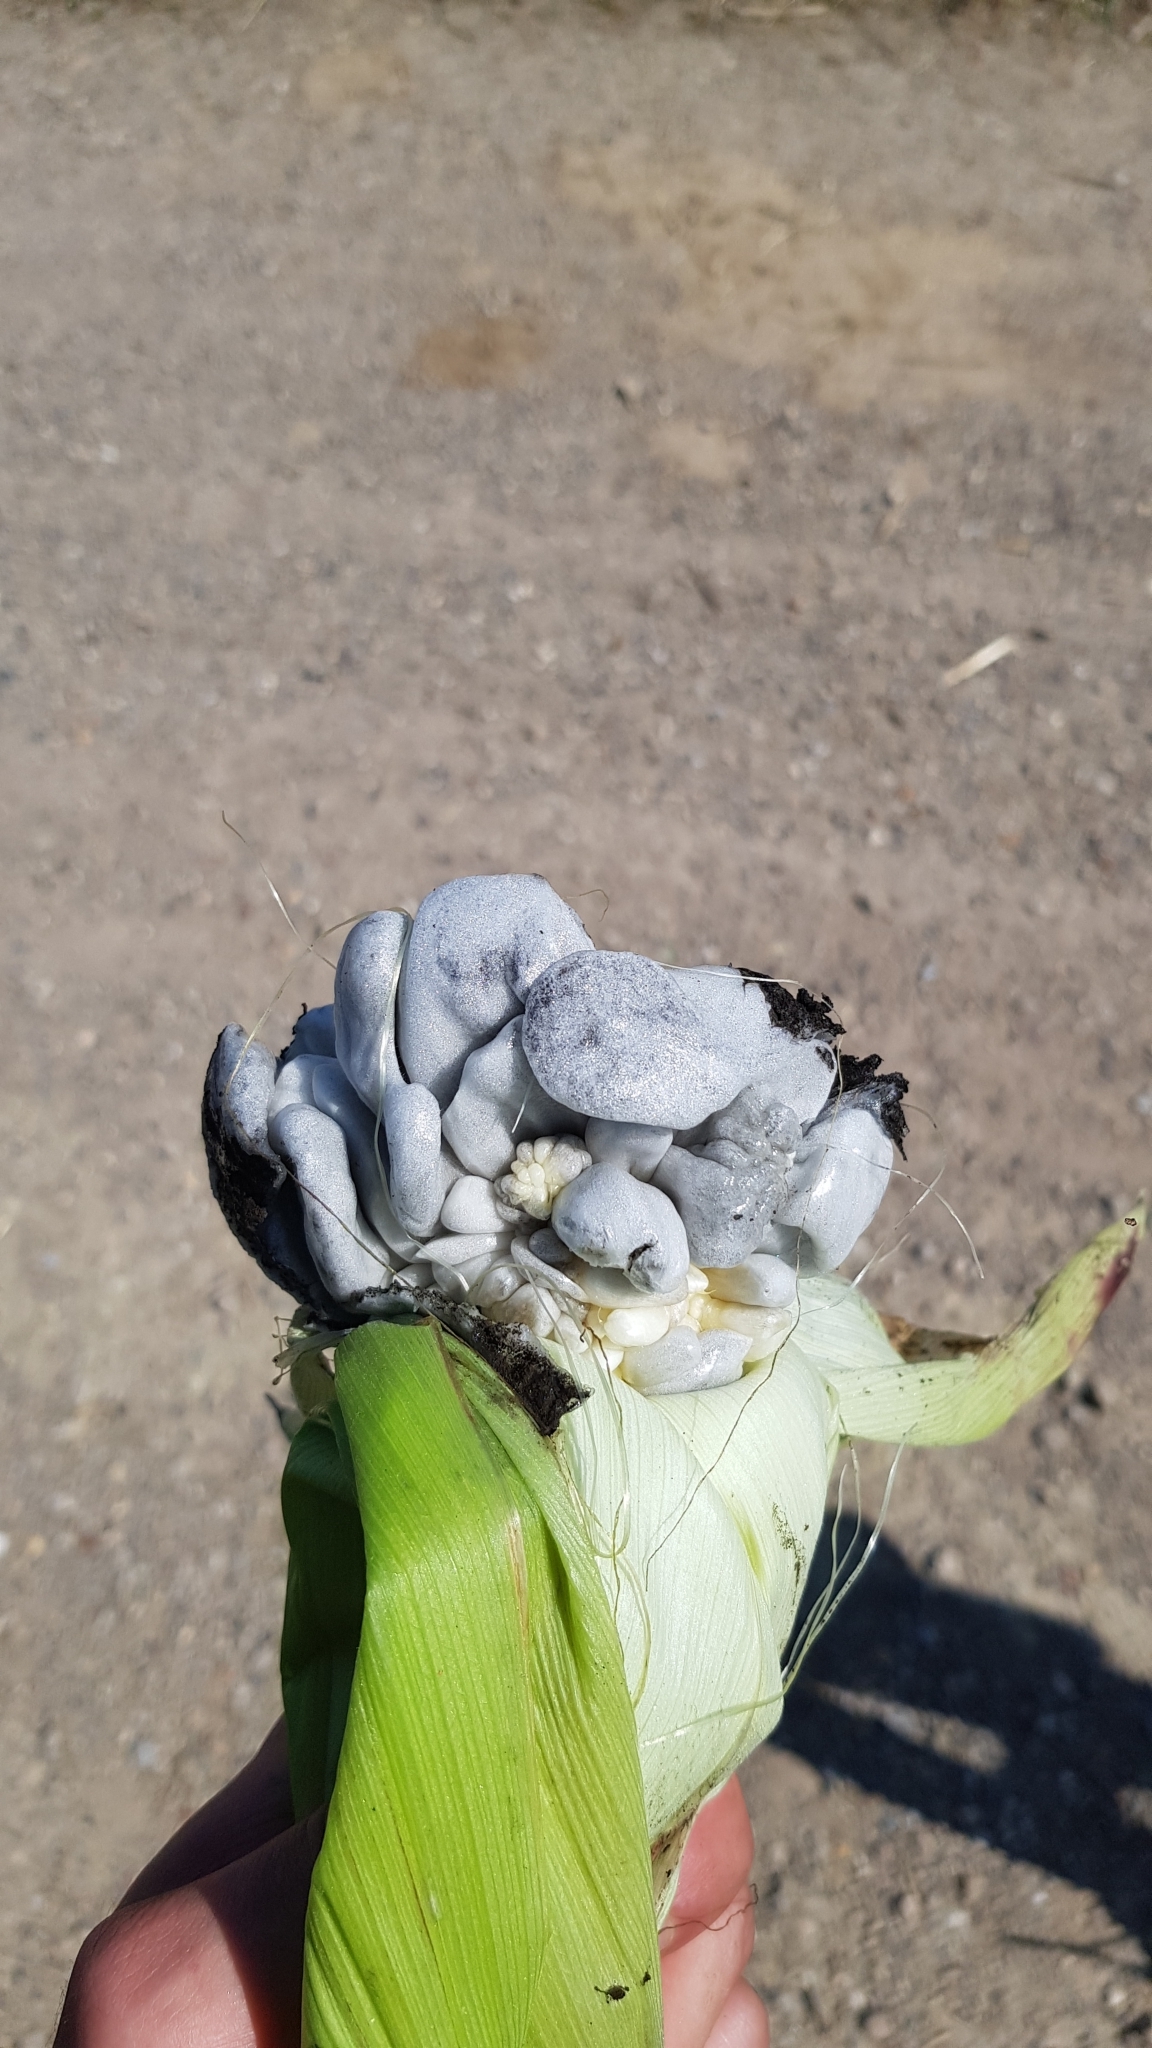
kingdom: Fungi
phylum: Basidiomycota
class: Ustilaginomycetes
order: Ustilaginales
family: Ustilaginaceae
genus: Mycosarcoma
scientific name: Mycosarcoma maydis
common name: Corn smut
